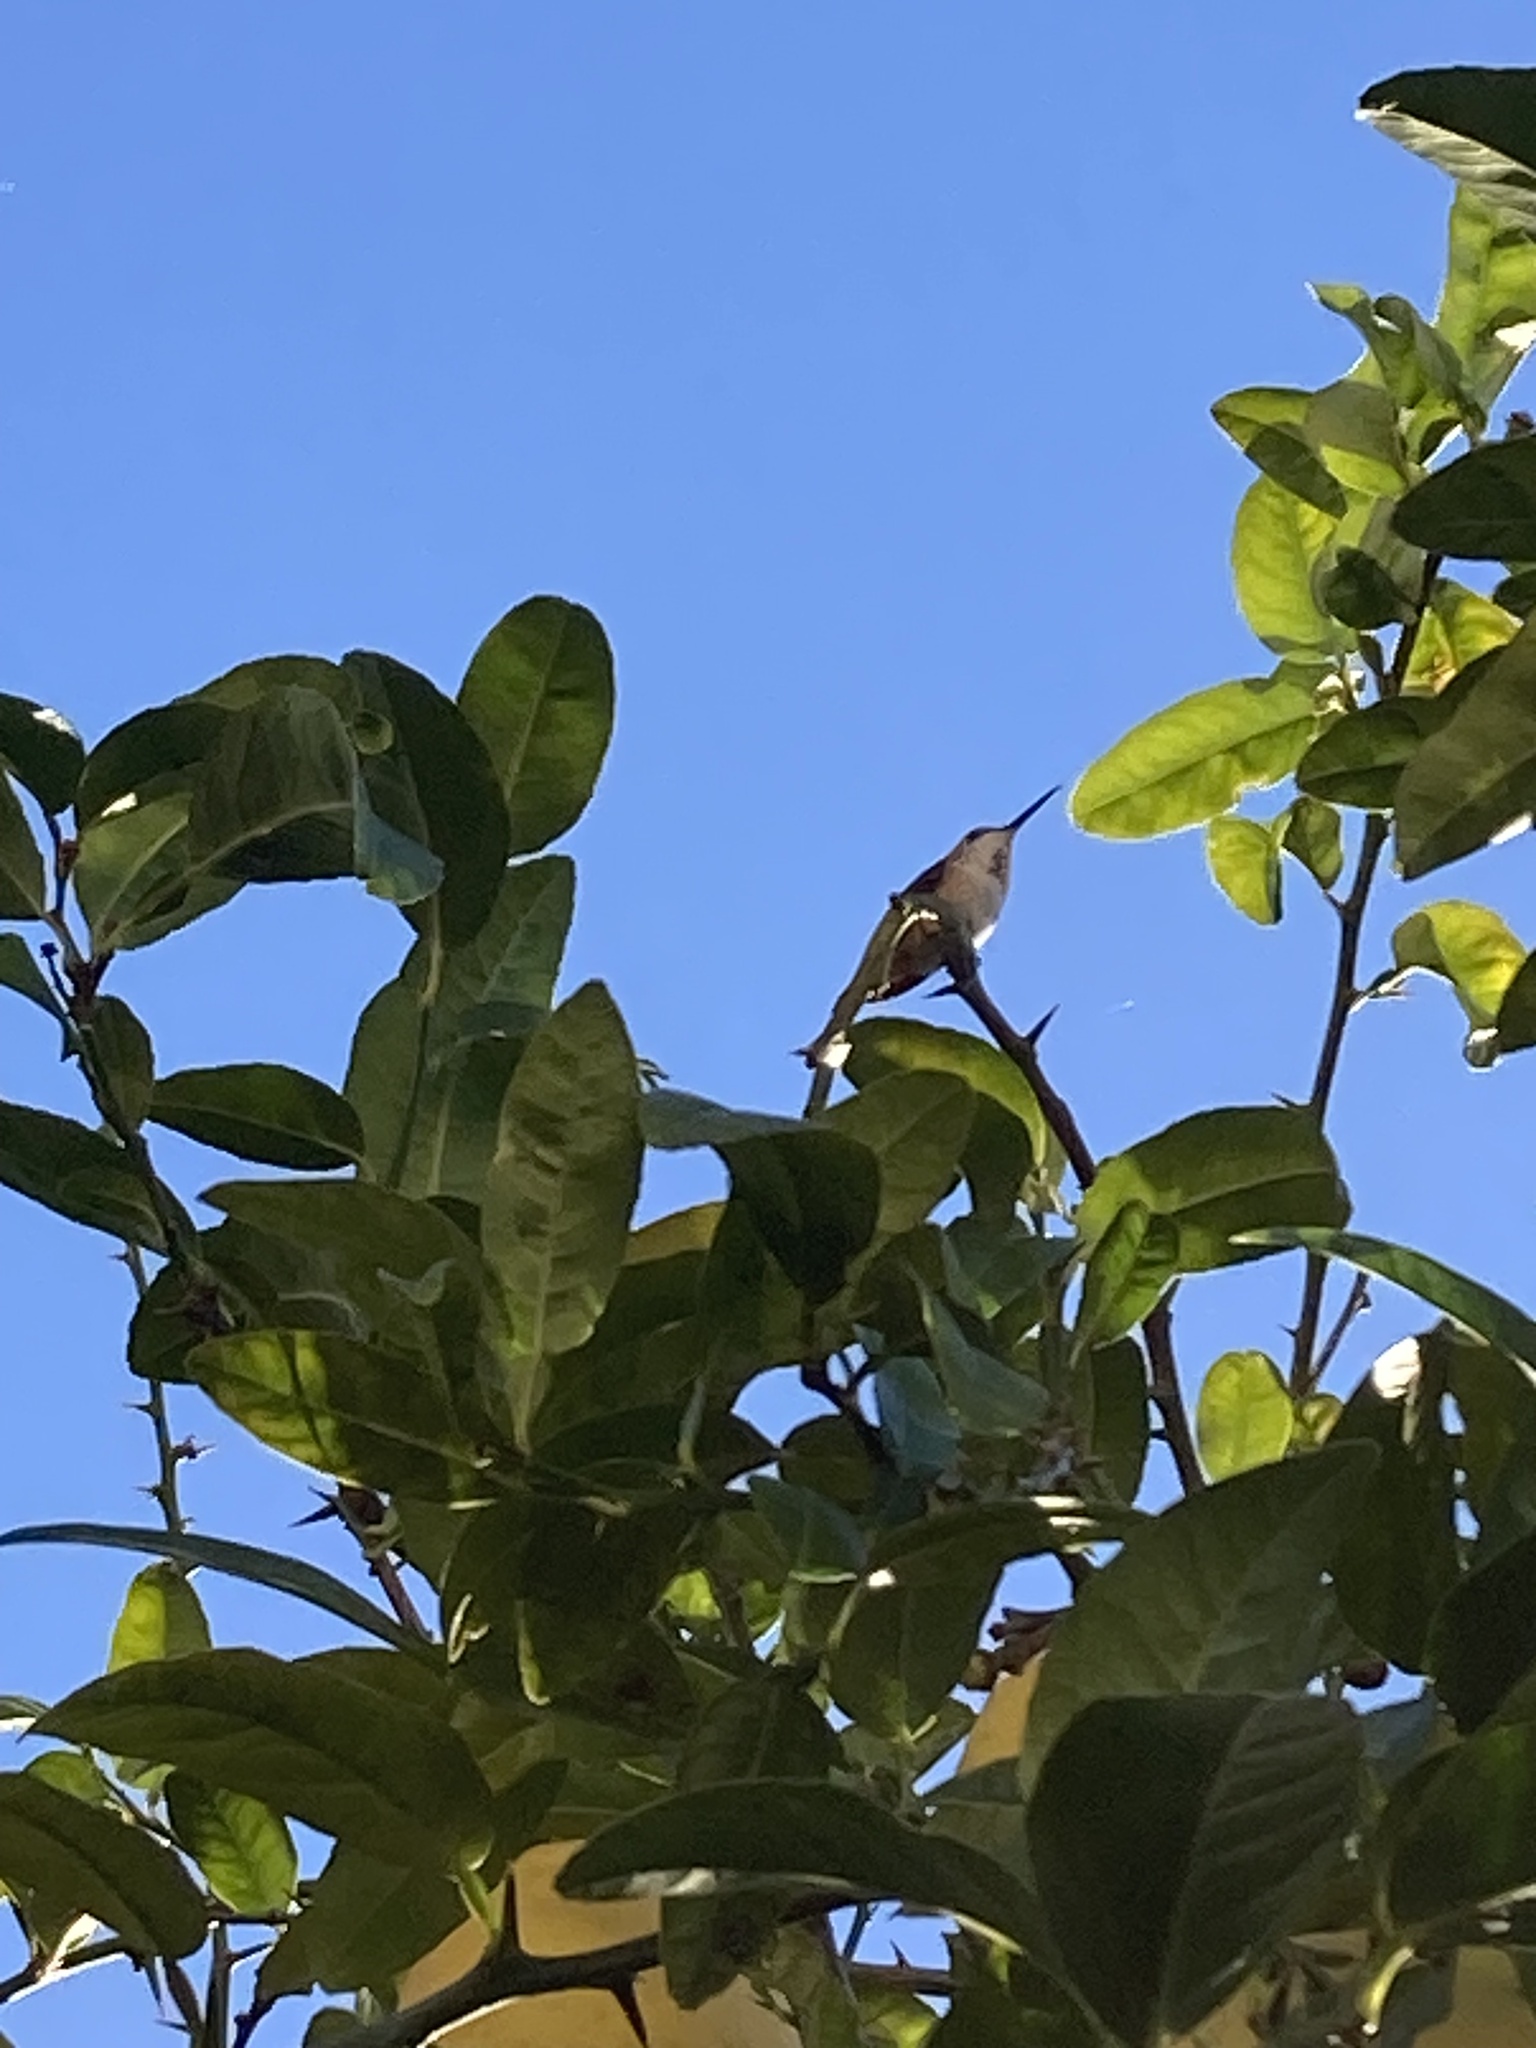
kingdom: Animalia
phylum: Chordata
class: Aves
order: Apodiformes
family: Trochilidae
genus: Selasphorus
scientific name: Selasphorus
